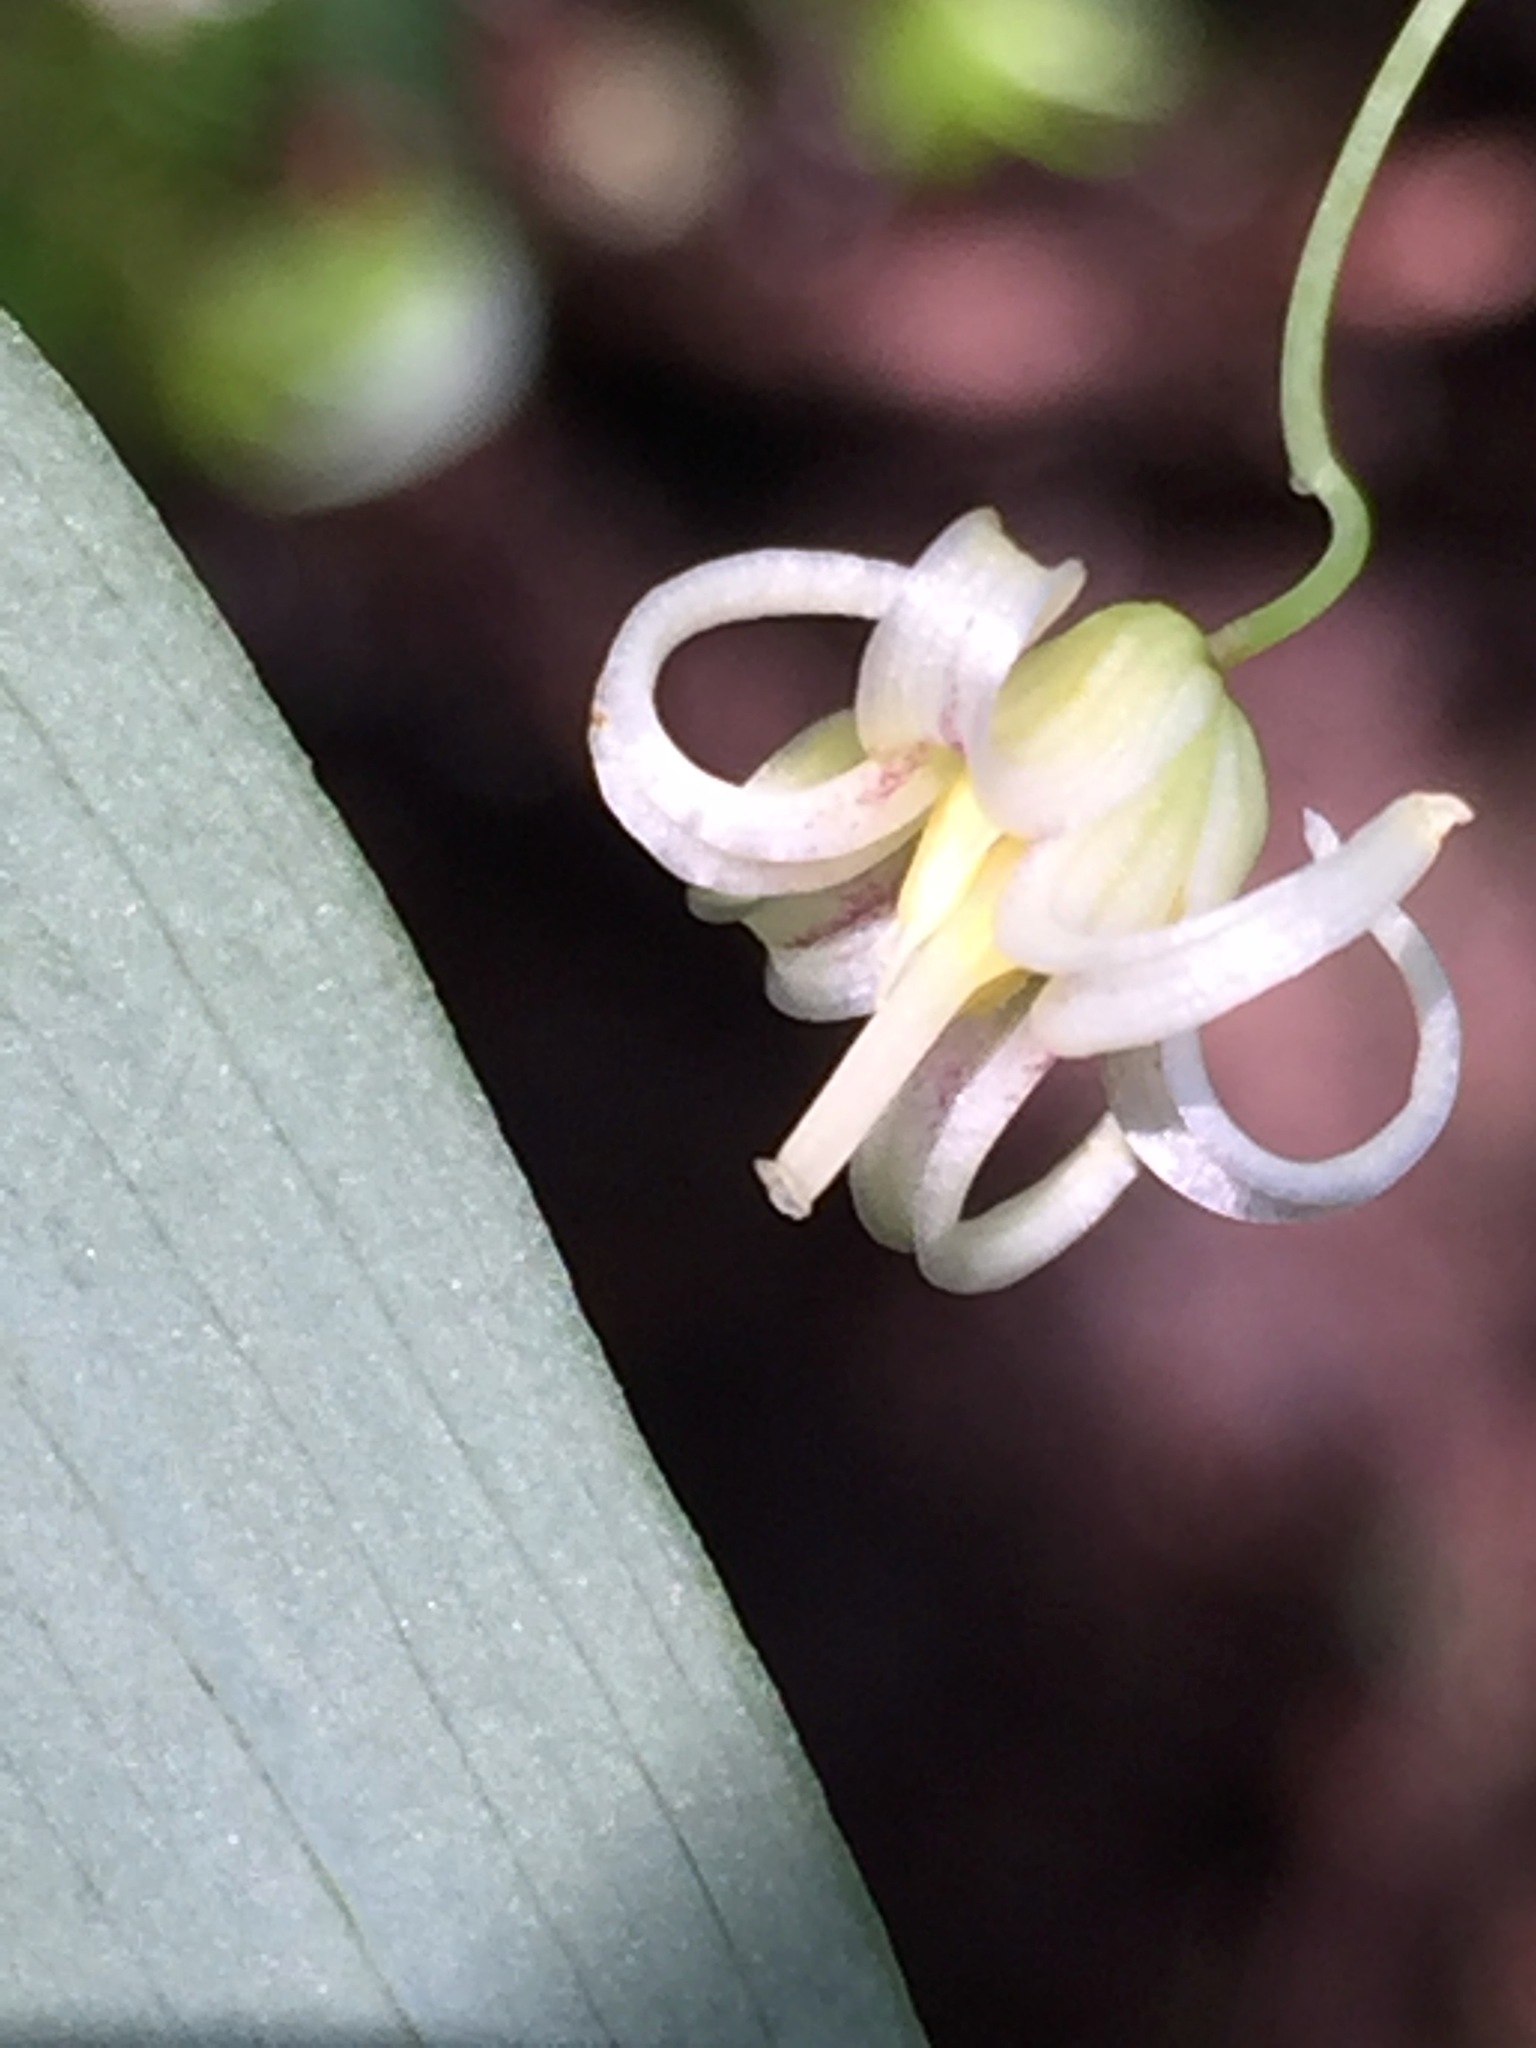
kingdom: Plantae
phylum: Tracheophyta
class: Liliopsida
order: Liliales
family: Liliaceae
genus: Streptopus
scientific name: Streptopus amplexifolius
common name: Clasp twisted stalk
